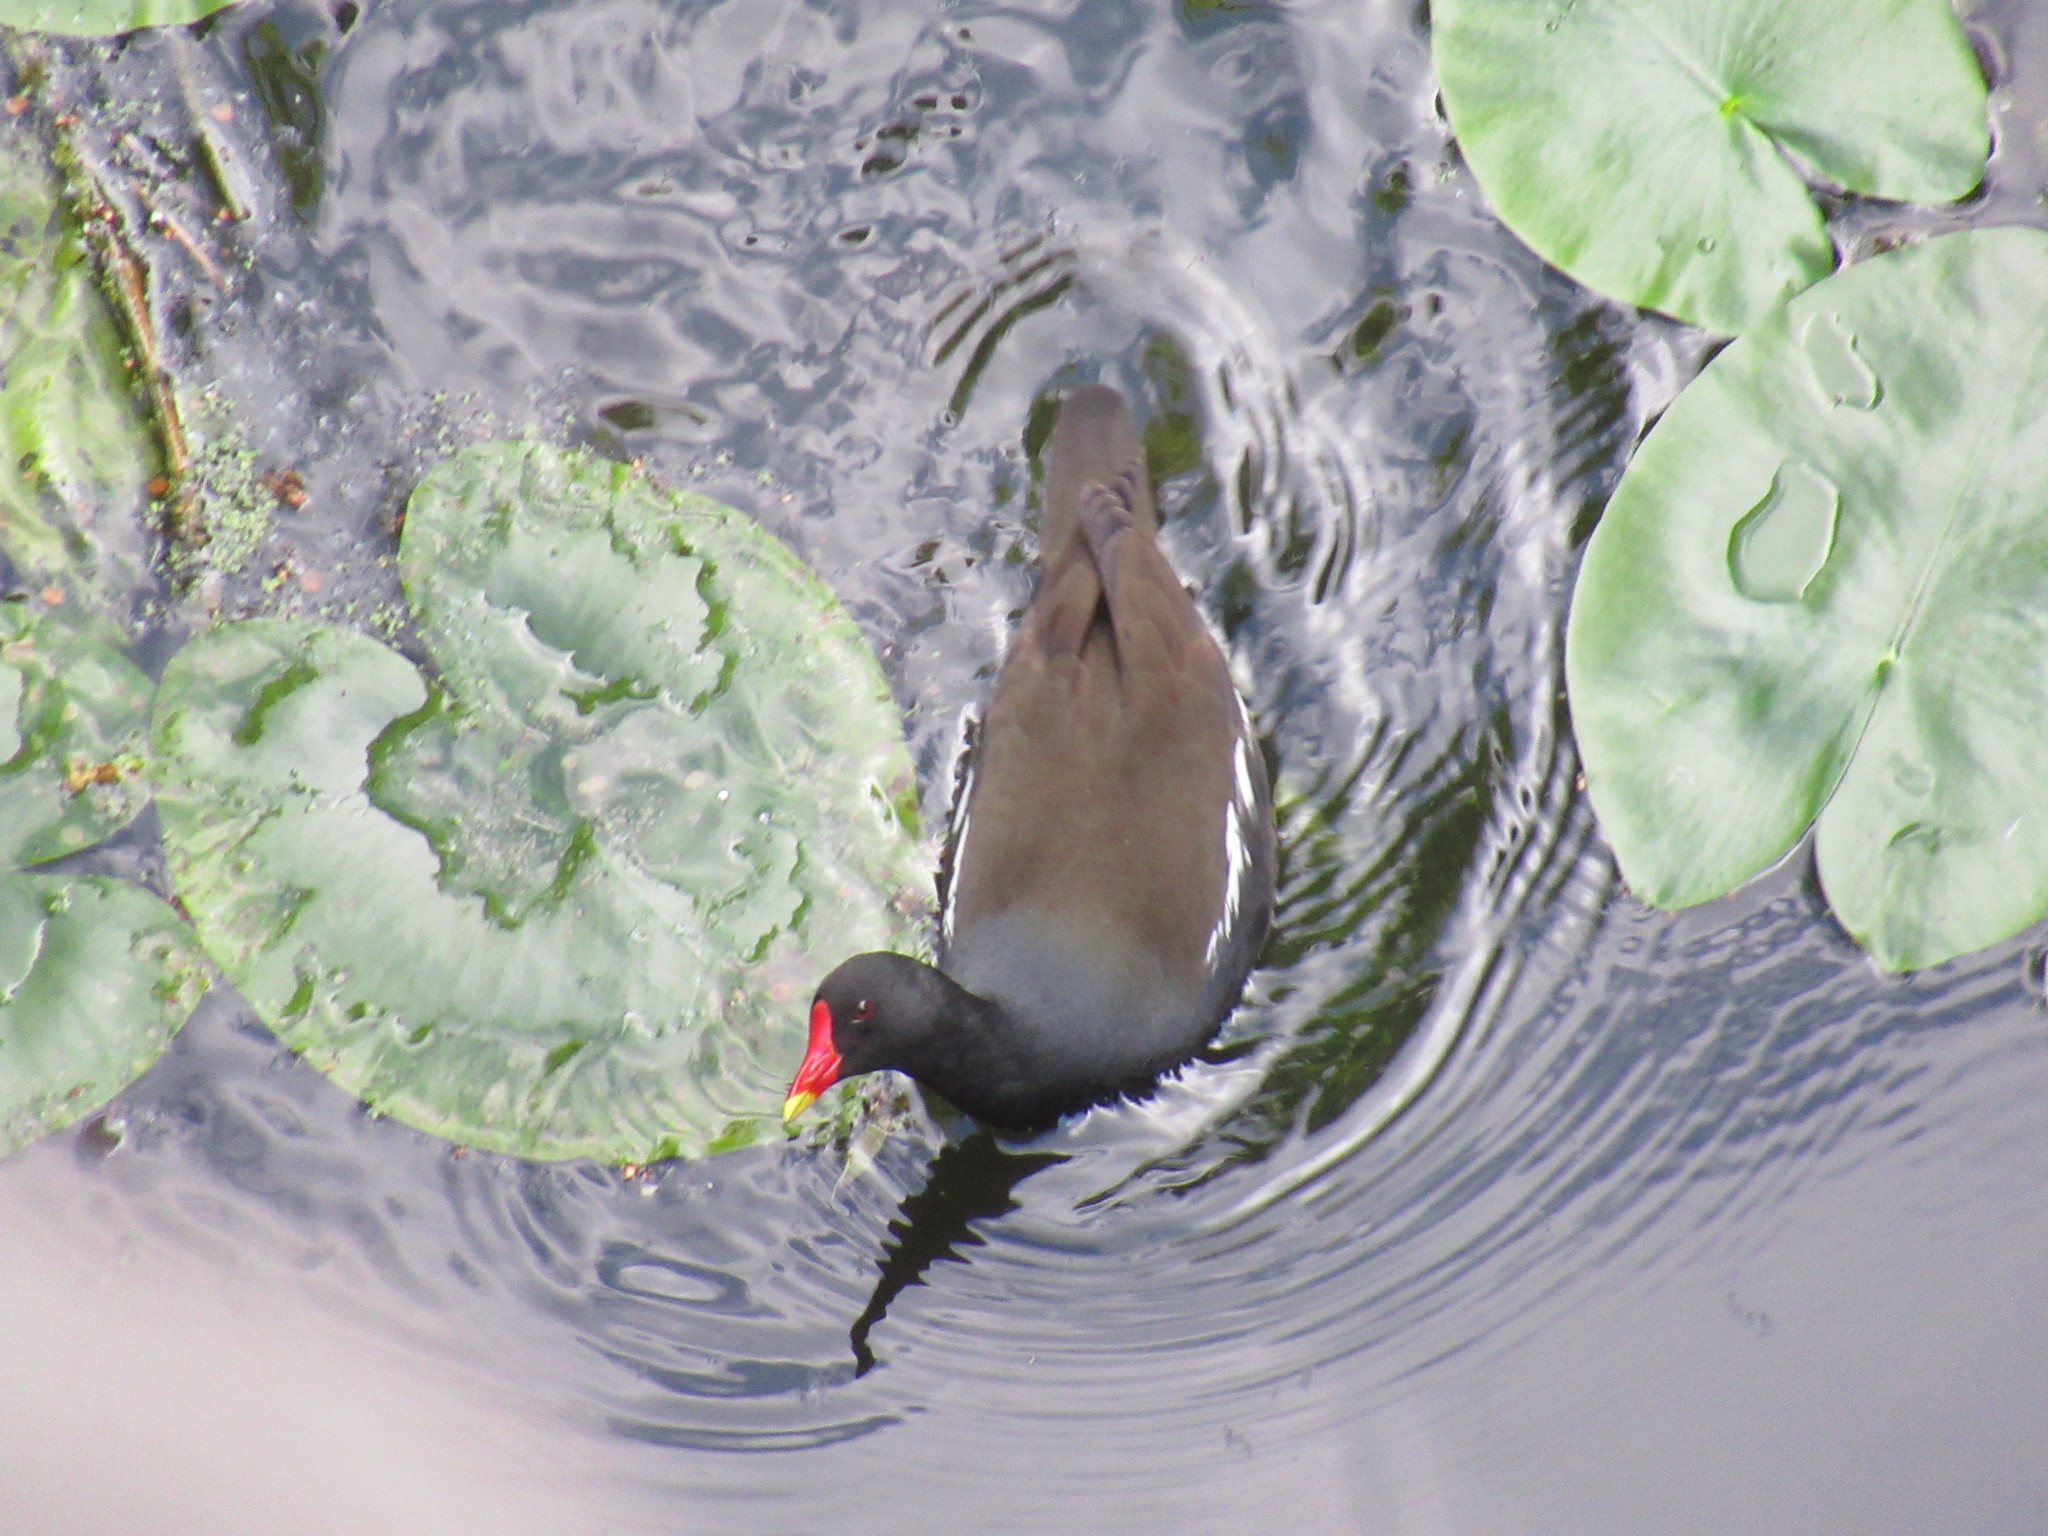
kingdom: Animalia
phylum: Chordata
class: Aves
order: Gruiformes
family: Rallidae
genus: Gallinula
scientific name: Gallinula chloropus
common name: Common moorhen
